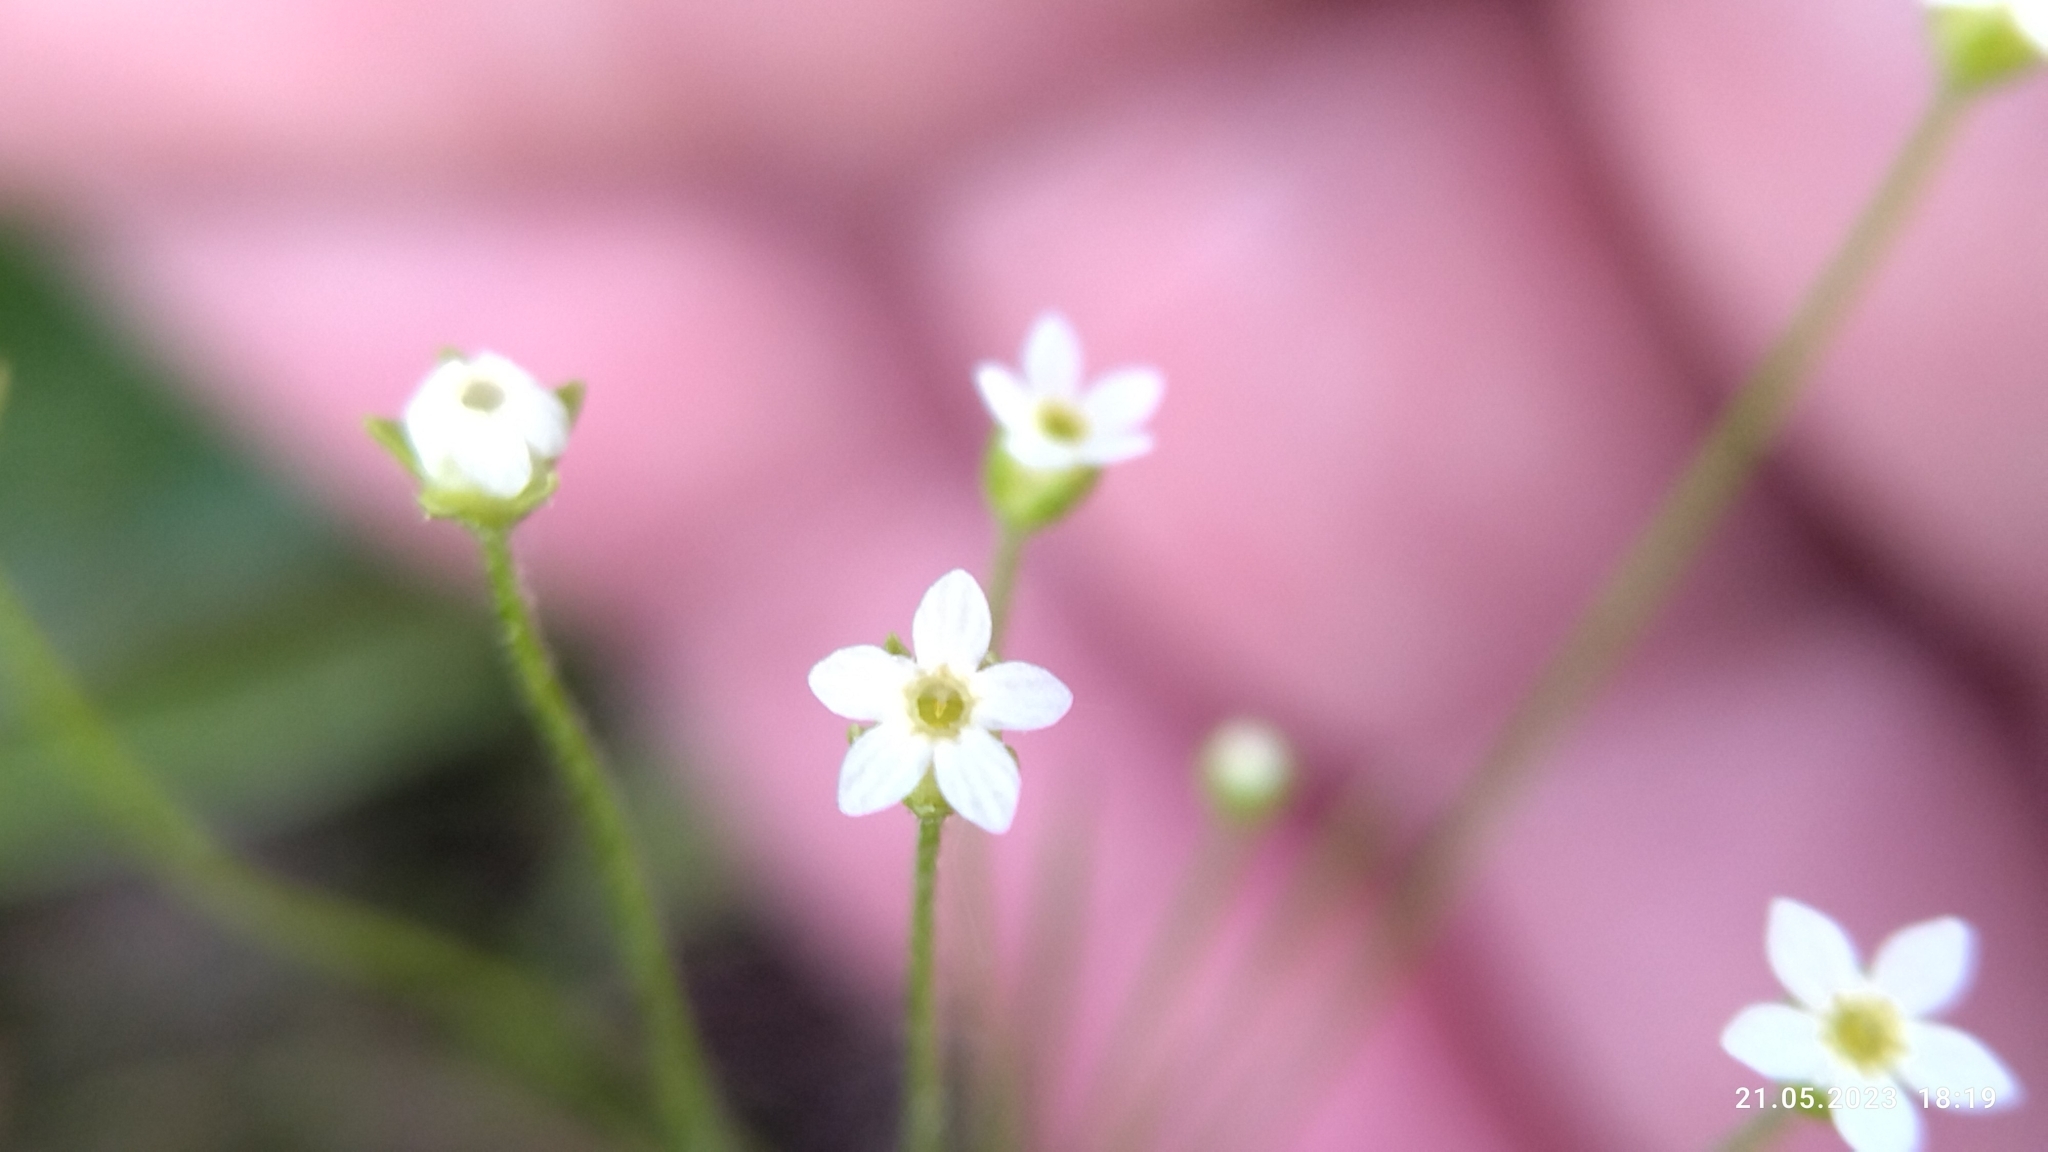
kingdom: Plantae
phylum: Tracheophyta
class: Magnoliopsida
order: Ericales
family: Primulaceae
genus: Androsace
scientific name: Androsace filiformis
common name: Filiform rock jasmine
